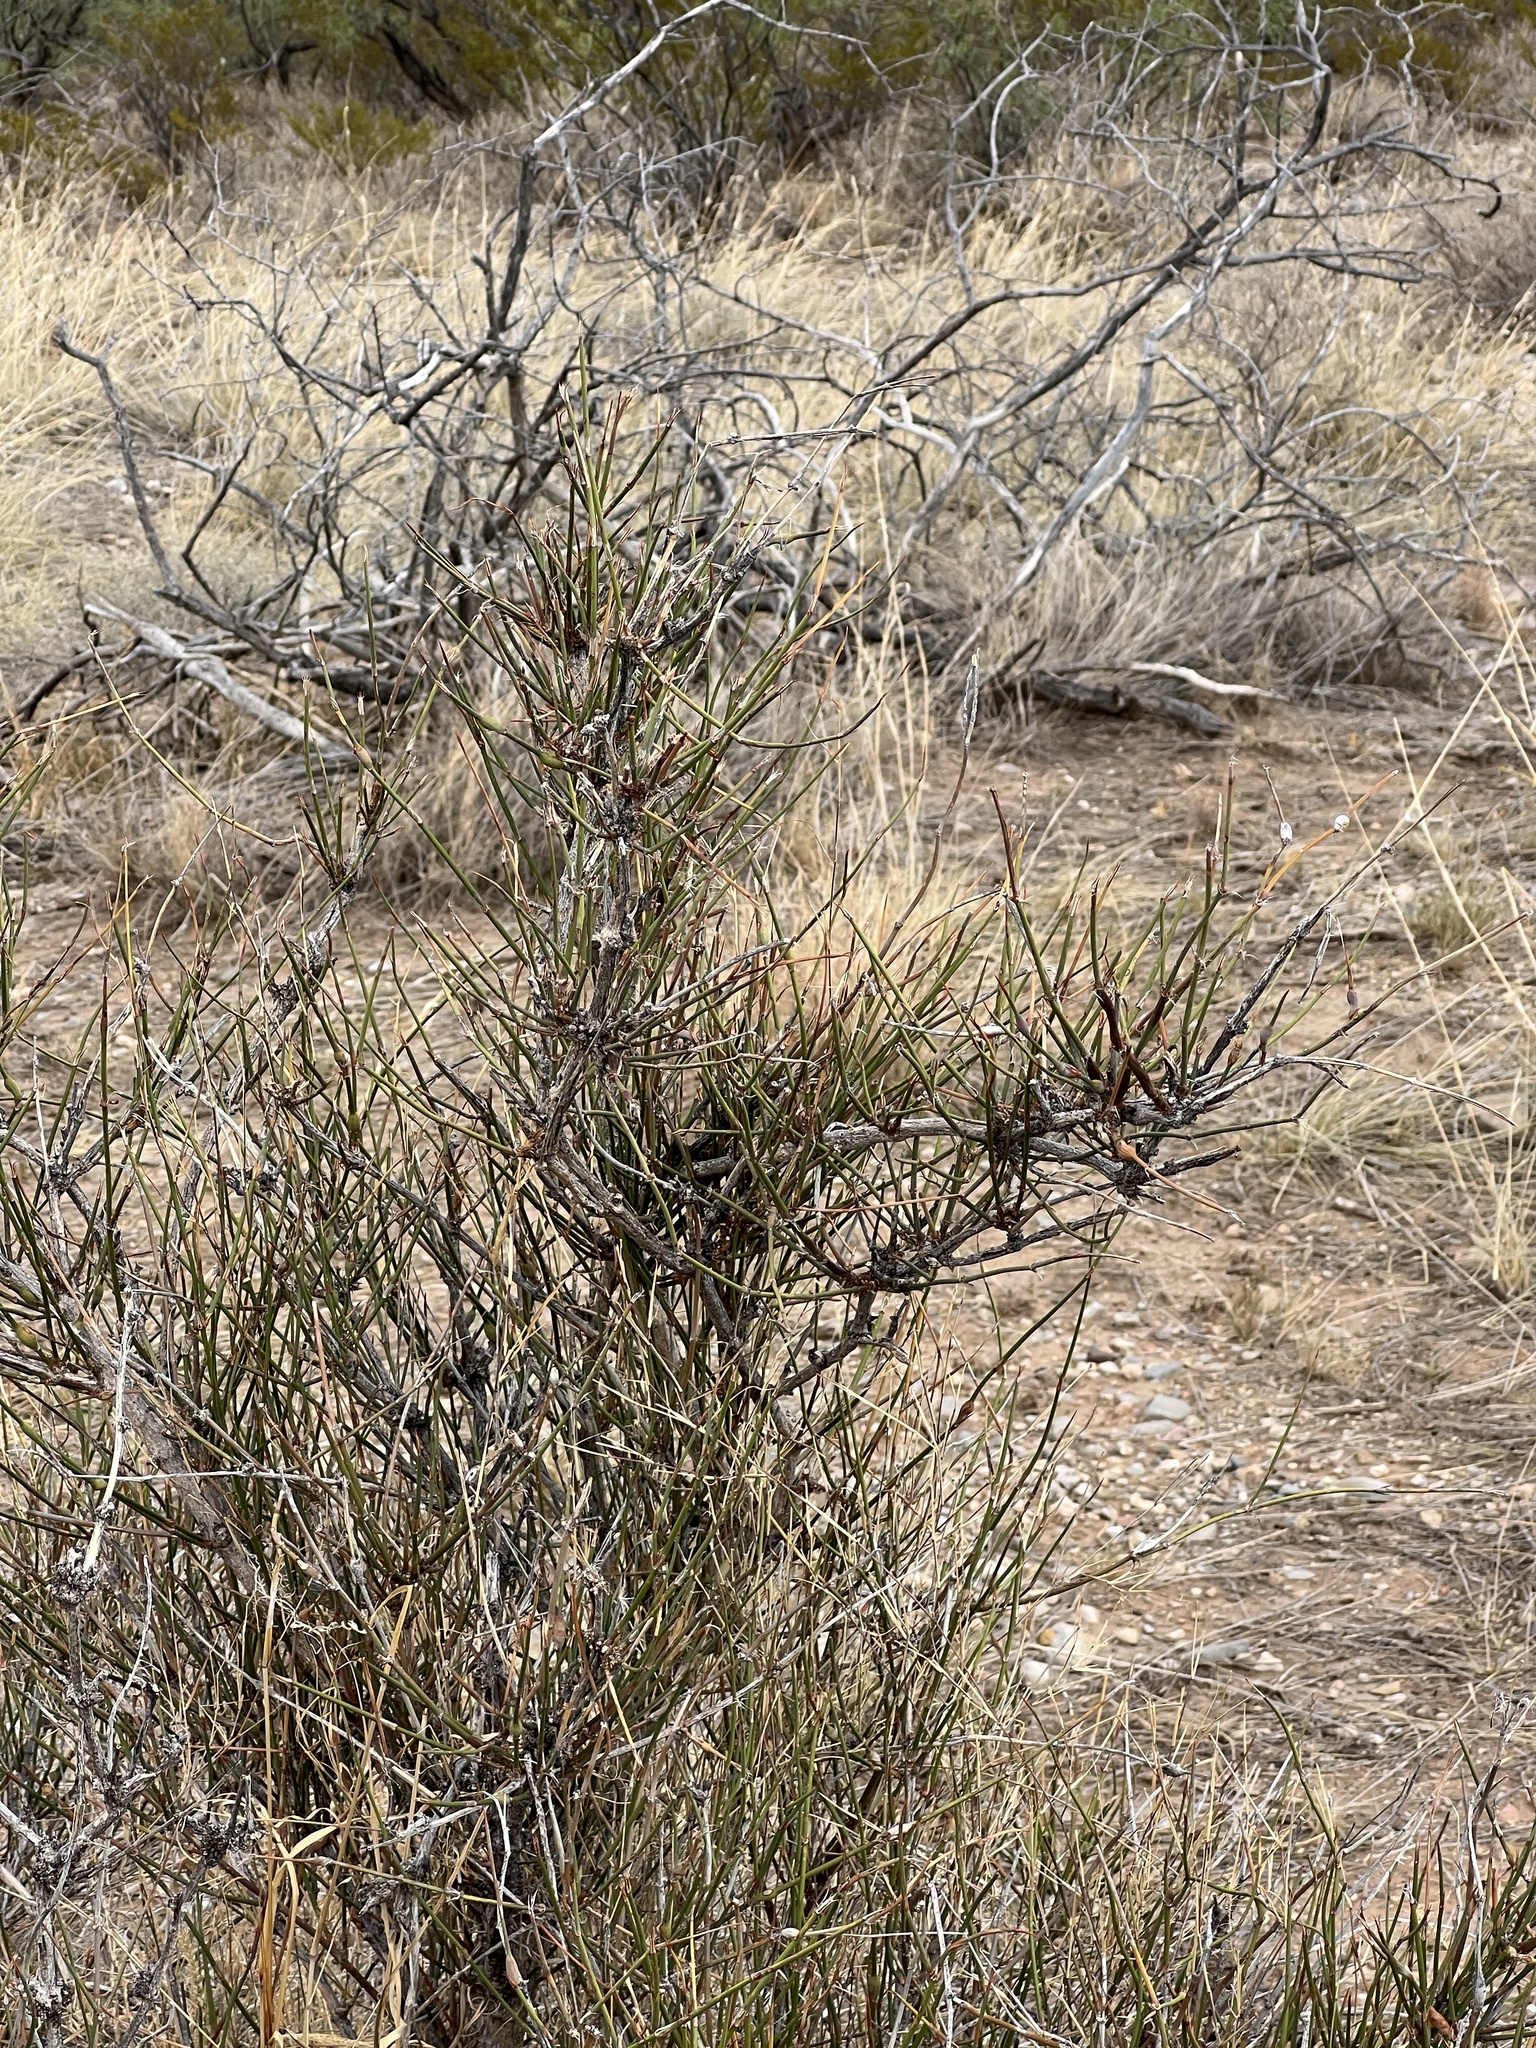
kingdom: Plantae
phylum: Tracheophyta
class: Gnetopsida
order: Ephedrales
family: Ephedraceae
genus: Ephedra
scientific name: Ephedra trifurca
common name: Mexican-tea
